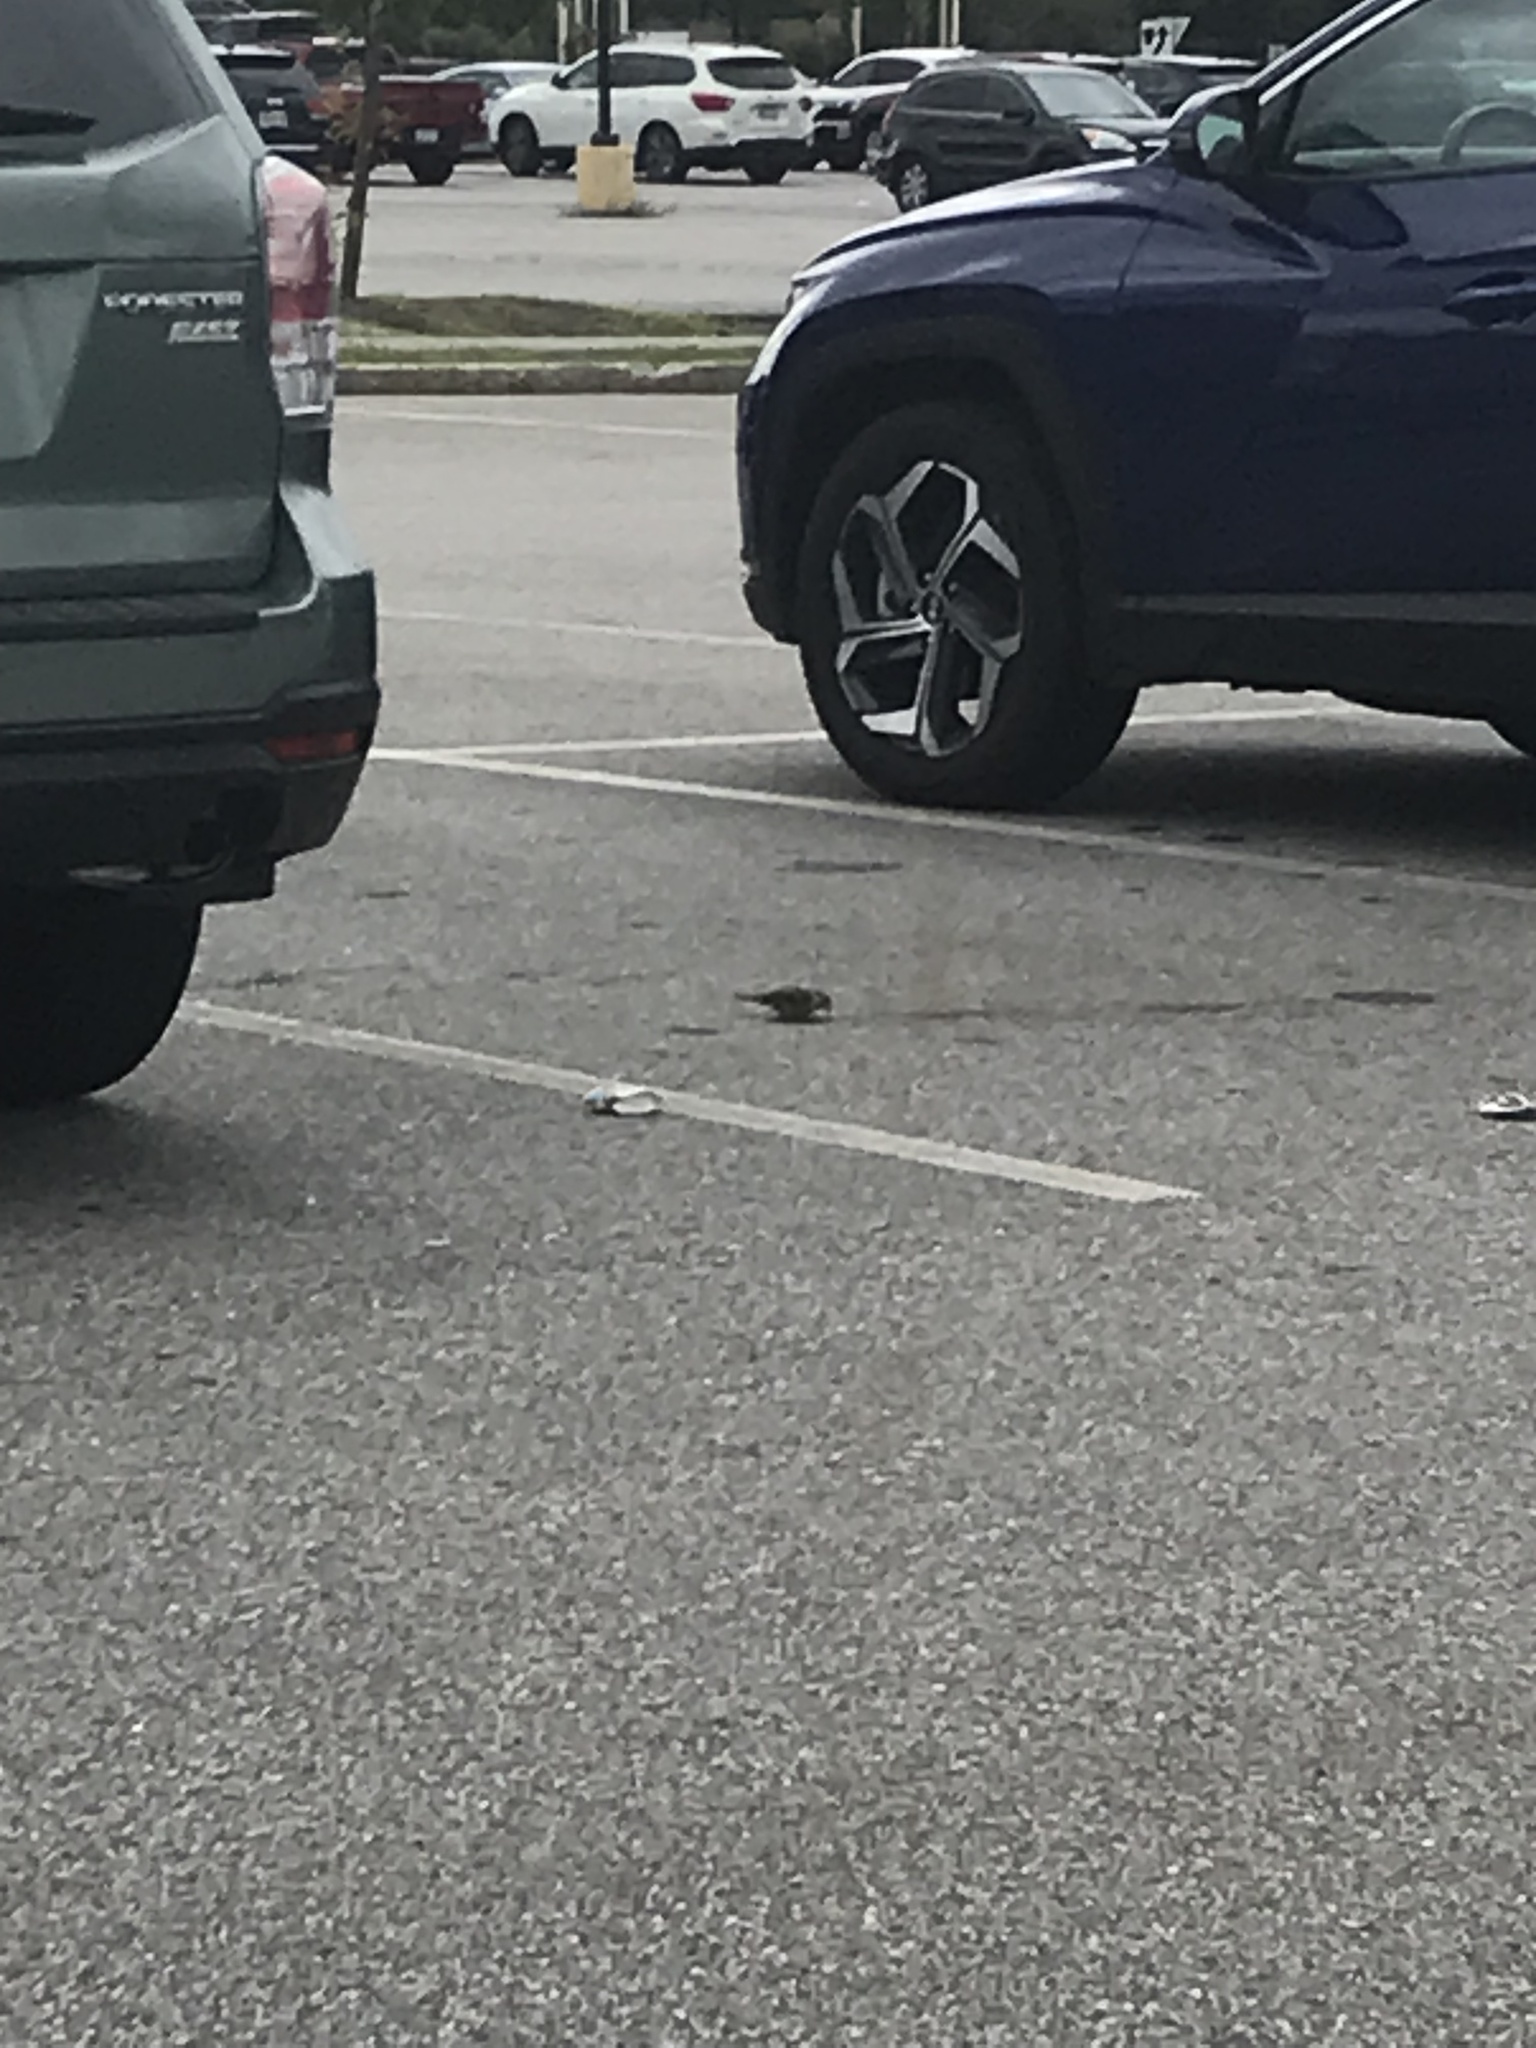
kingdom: Animalia
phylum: Chordata
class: Aves
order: Passeriformes
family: Passeridae
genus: Passer
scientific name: Passer domesticus
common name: House sparrow
